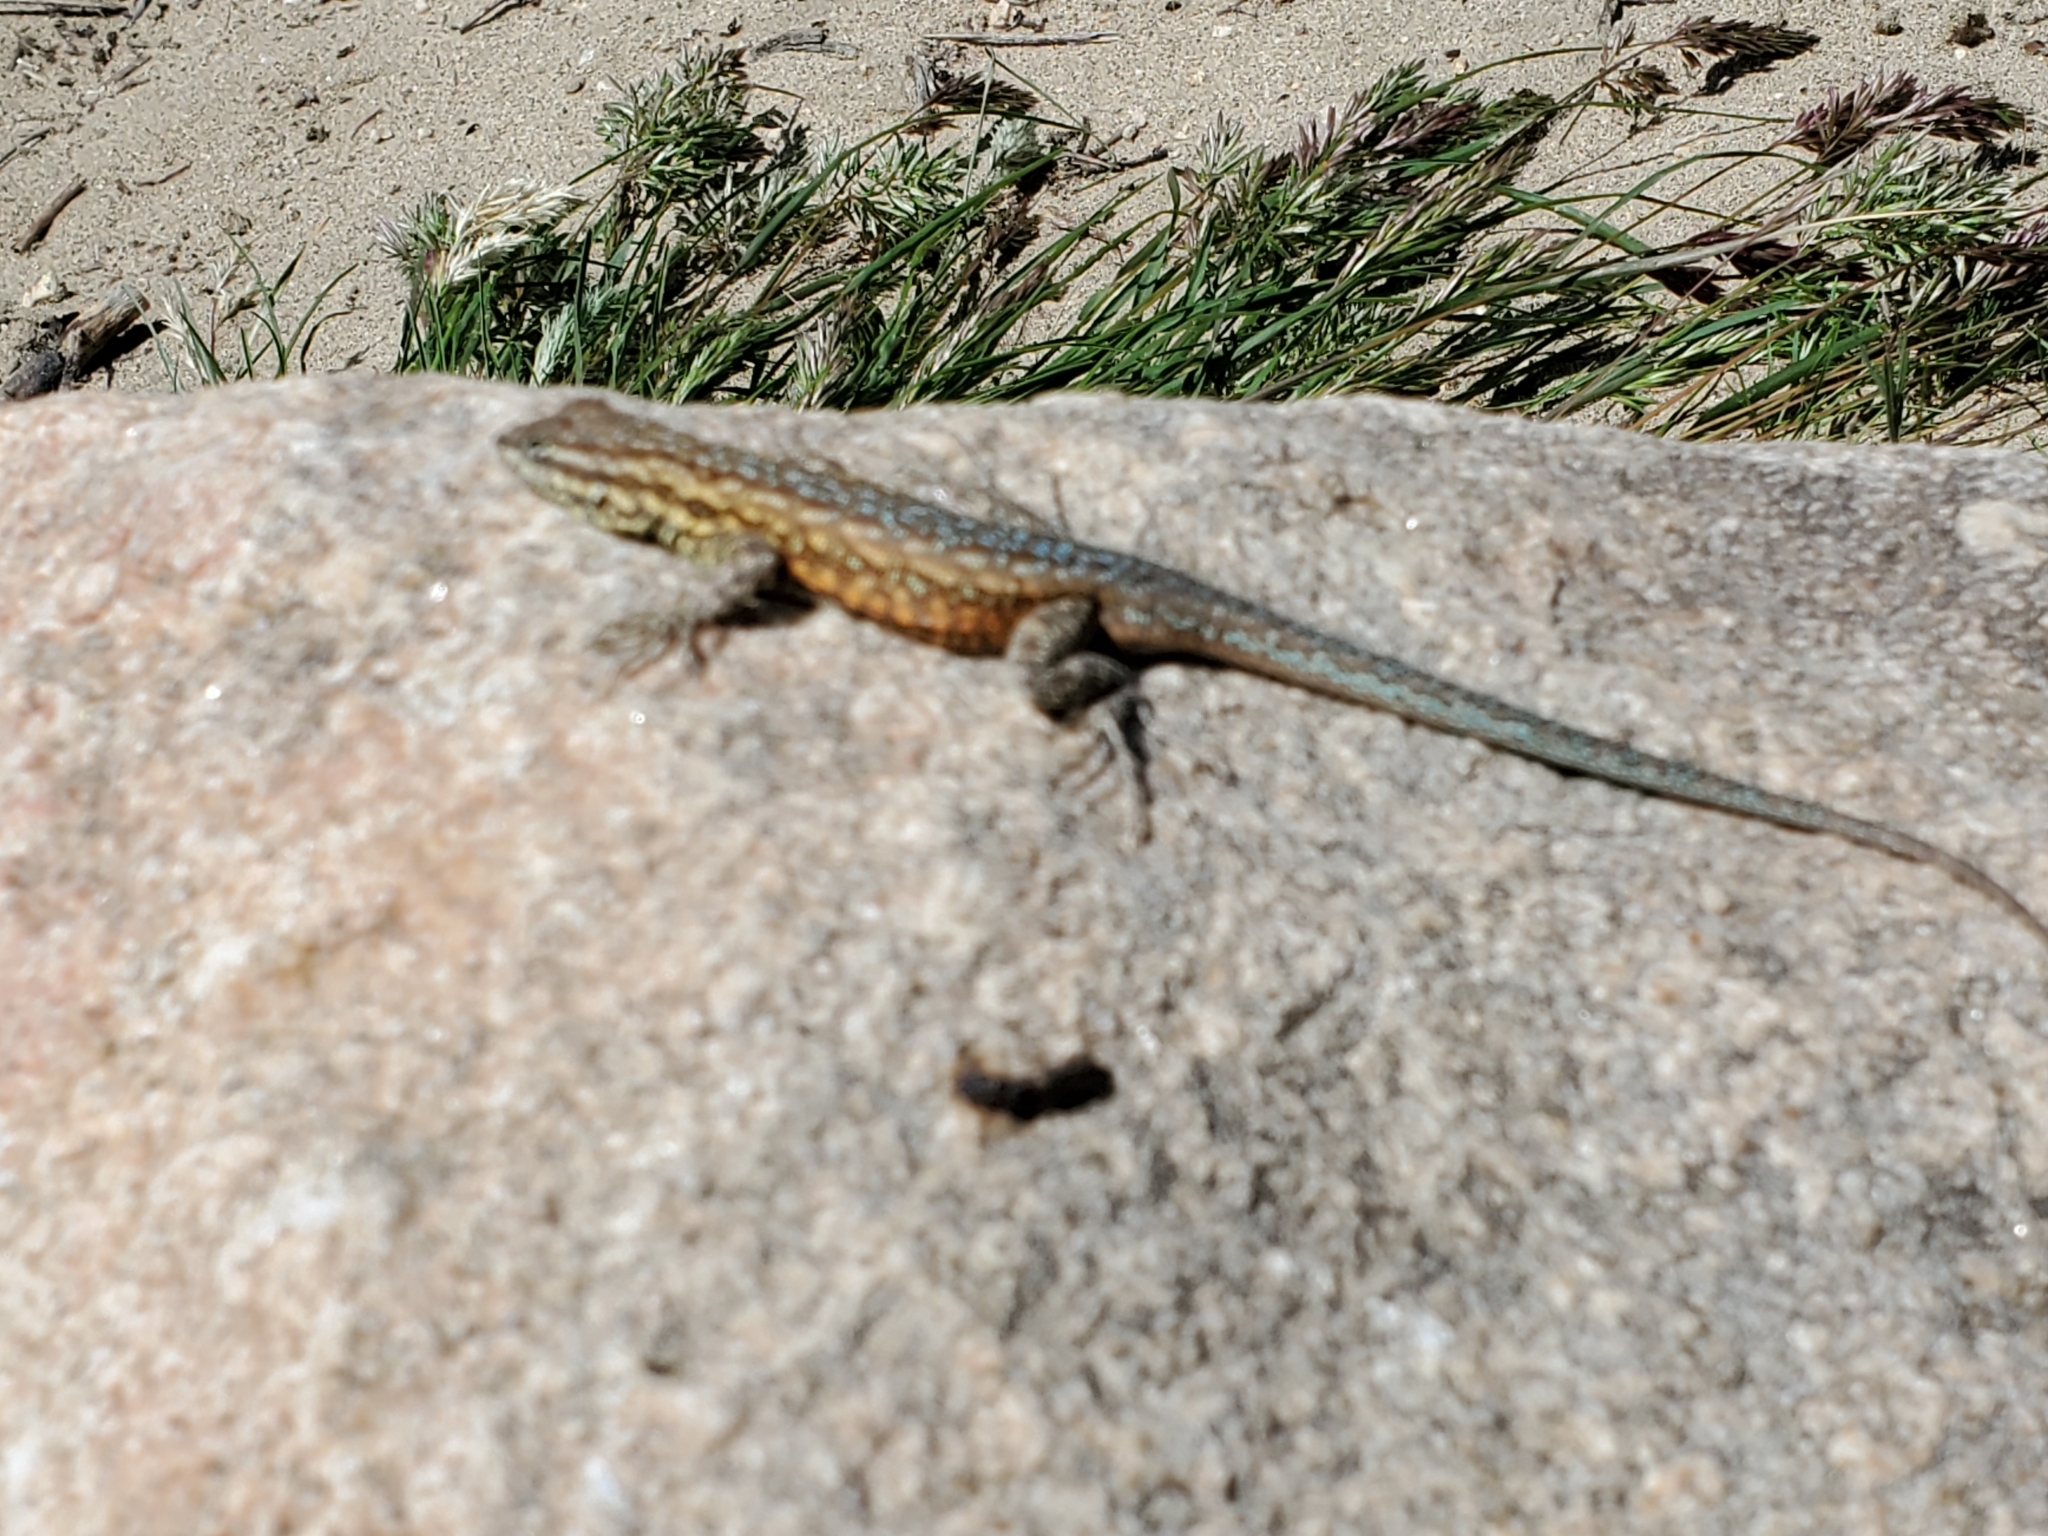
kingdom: Animalia
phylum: Chordata
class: Squamata
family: Phrynosomatidae
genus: Uta
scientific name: Uta stansburiana
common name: Side-blotched lizard
